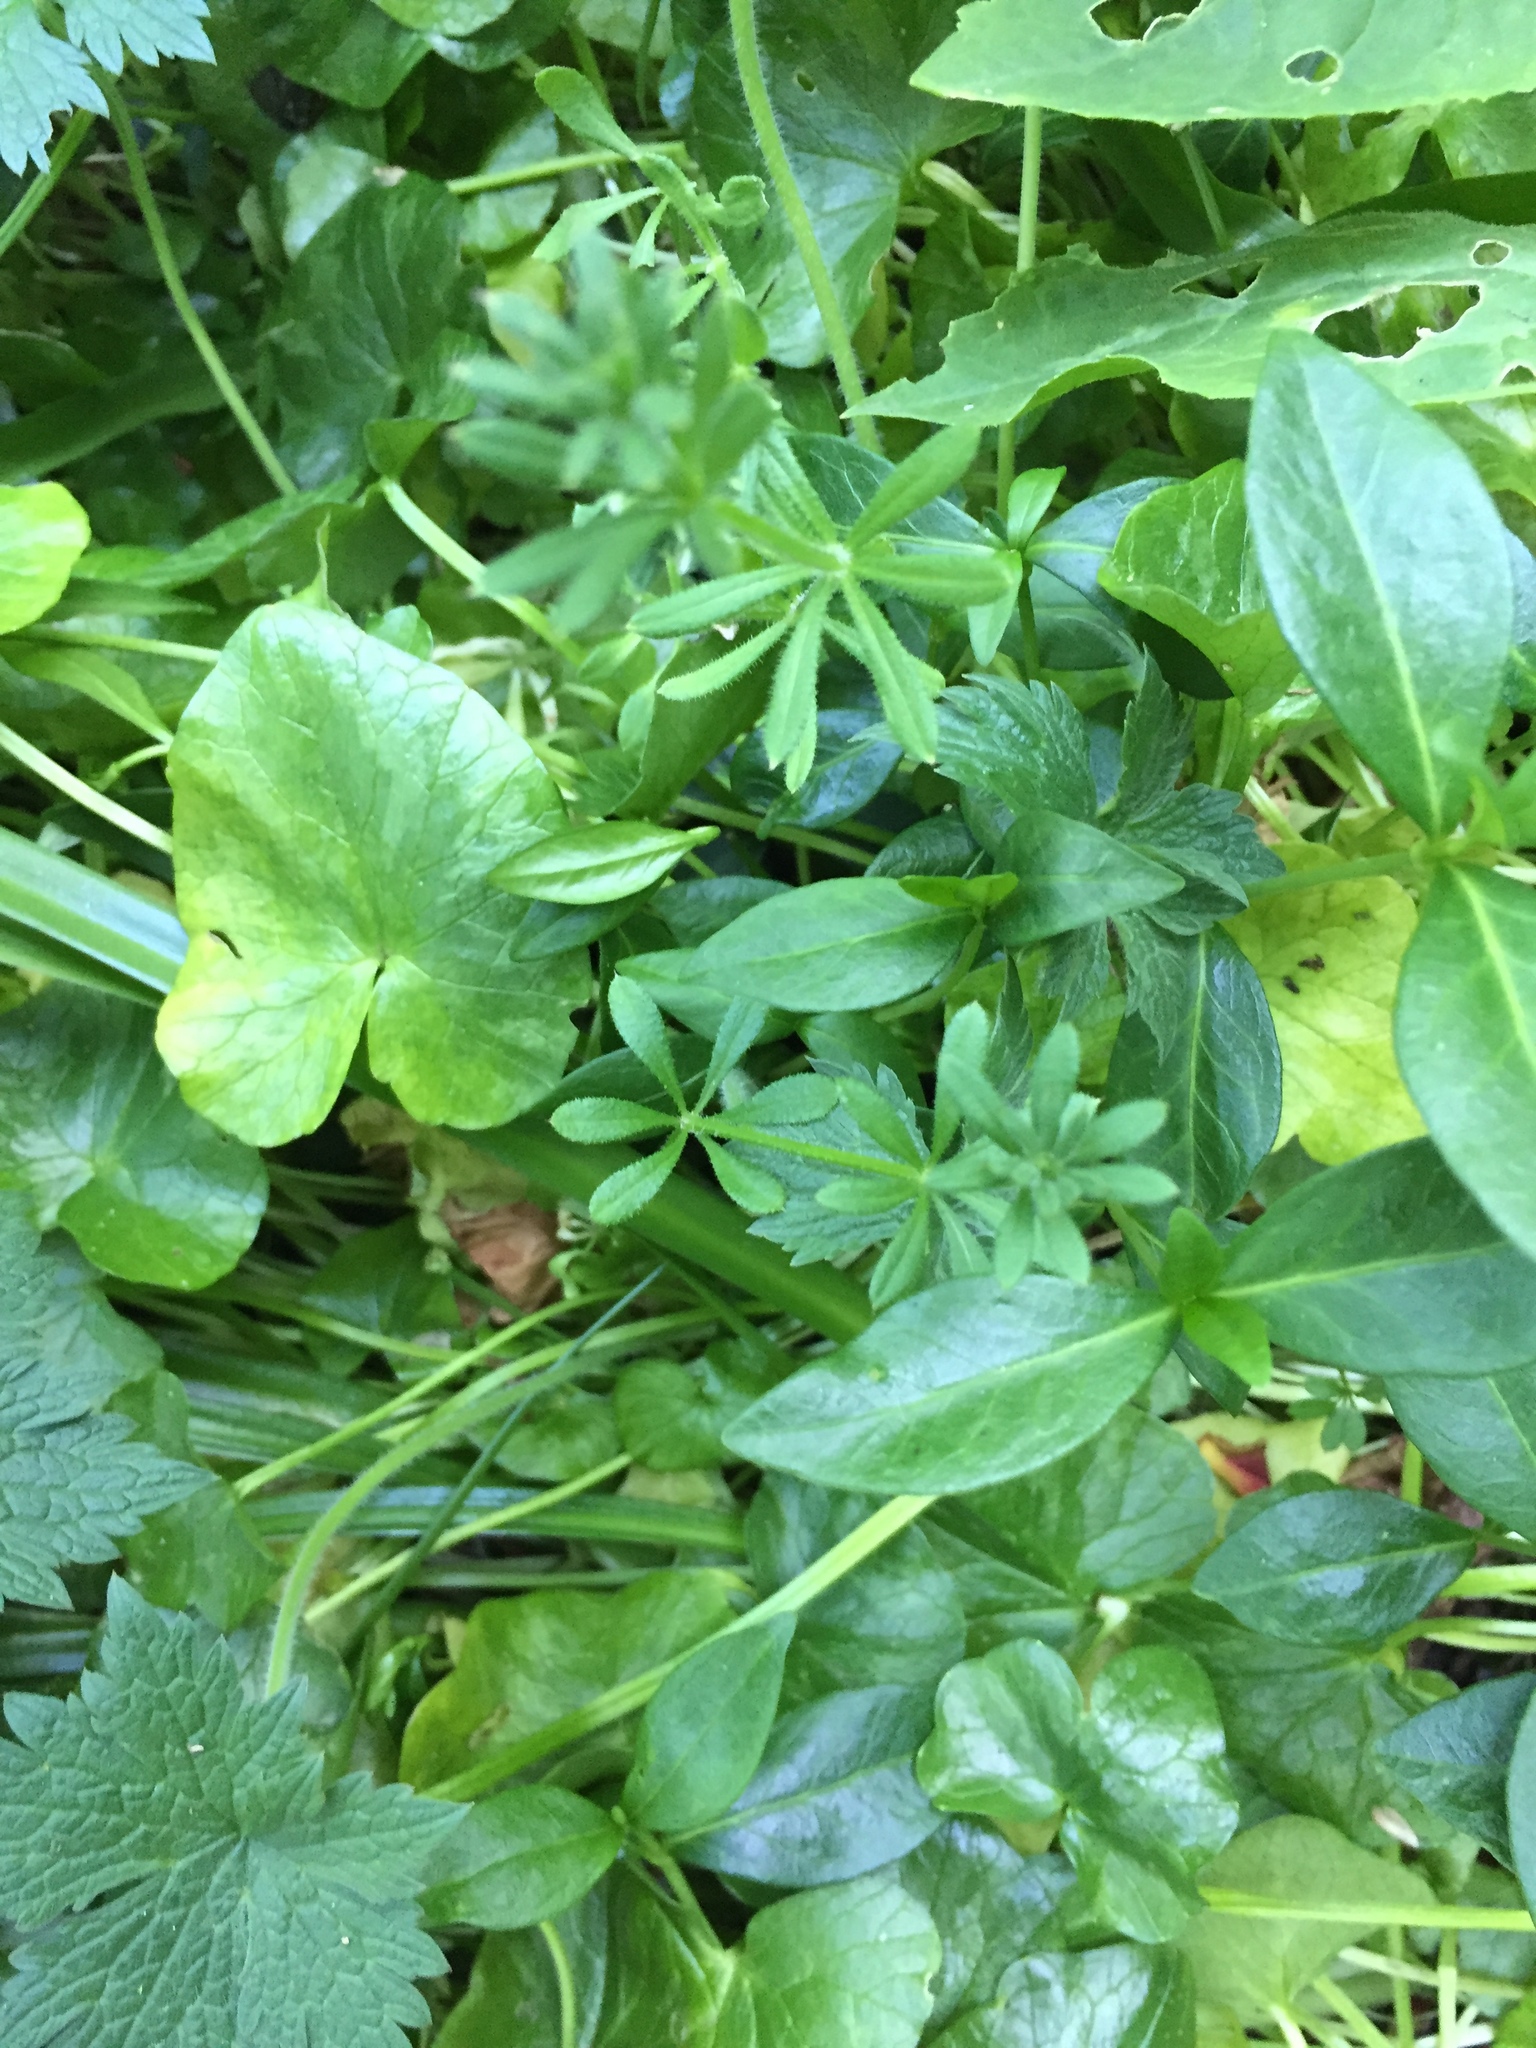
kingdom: Plantae
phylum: Tracheophyta
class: Magnoliopsida
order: Gentianales
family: Rubiaceae
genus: Galium
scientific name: Galium aparine
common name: Cleavers
